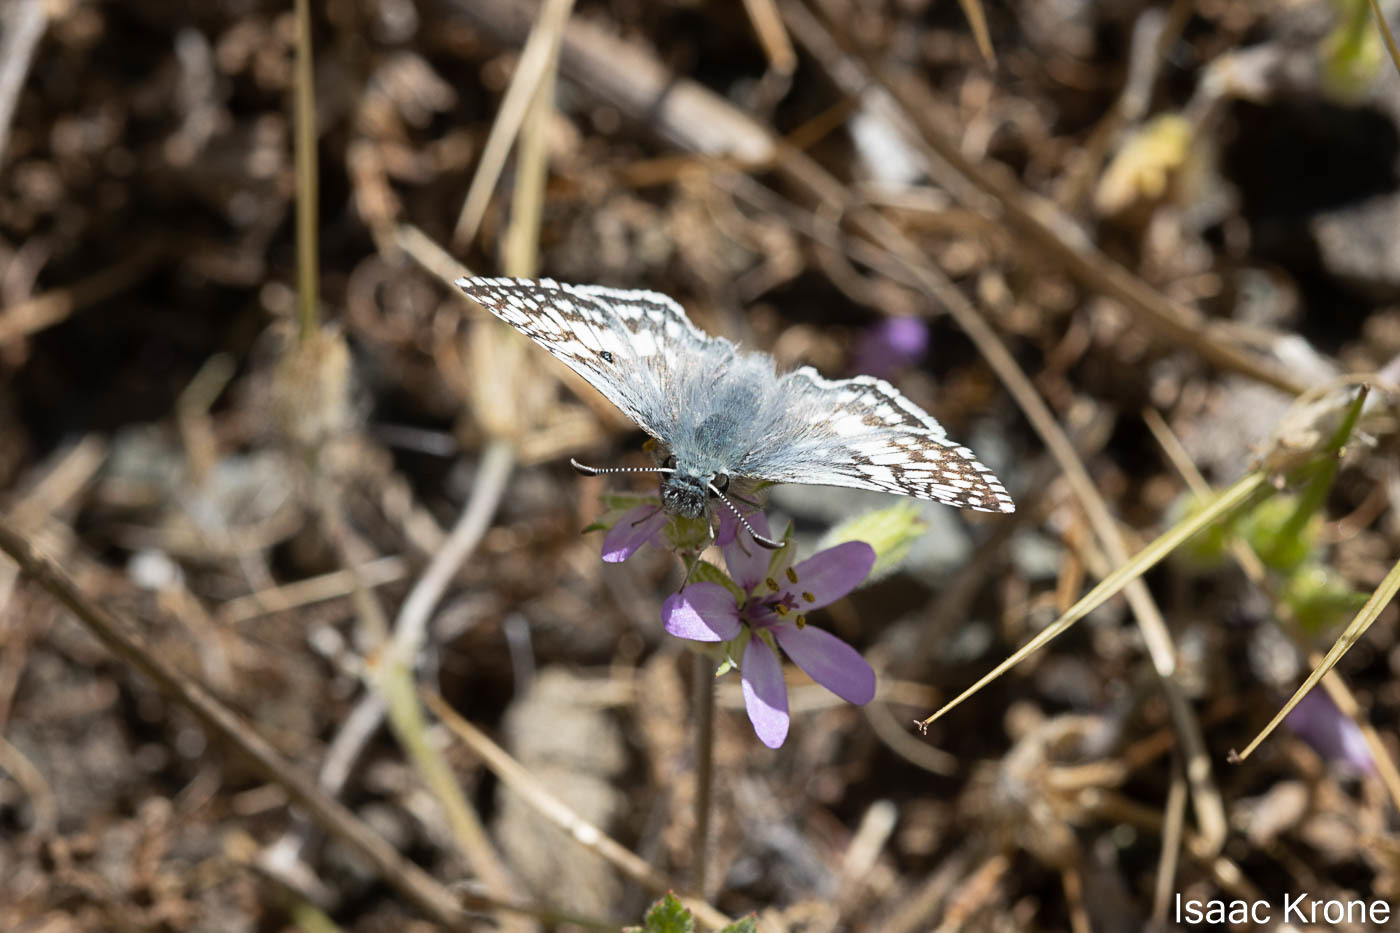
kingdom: Animalia
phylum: Arthropoda
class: Insecta
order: Lepidoptera
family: Hesperiidae
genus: Burnsius
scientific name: Burnsius communis
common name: Common checkered-skipper
